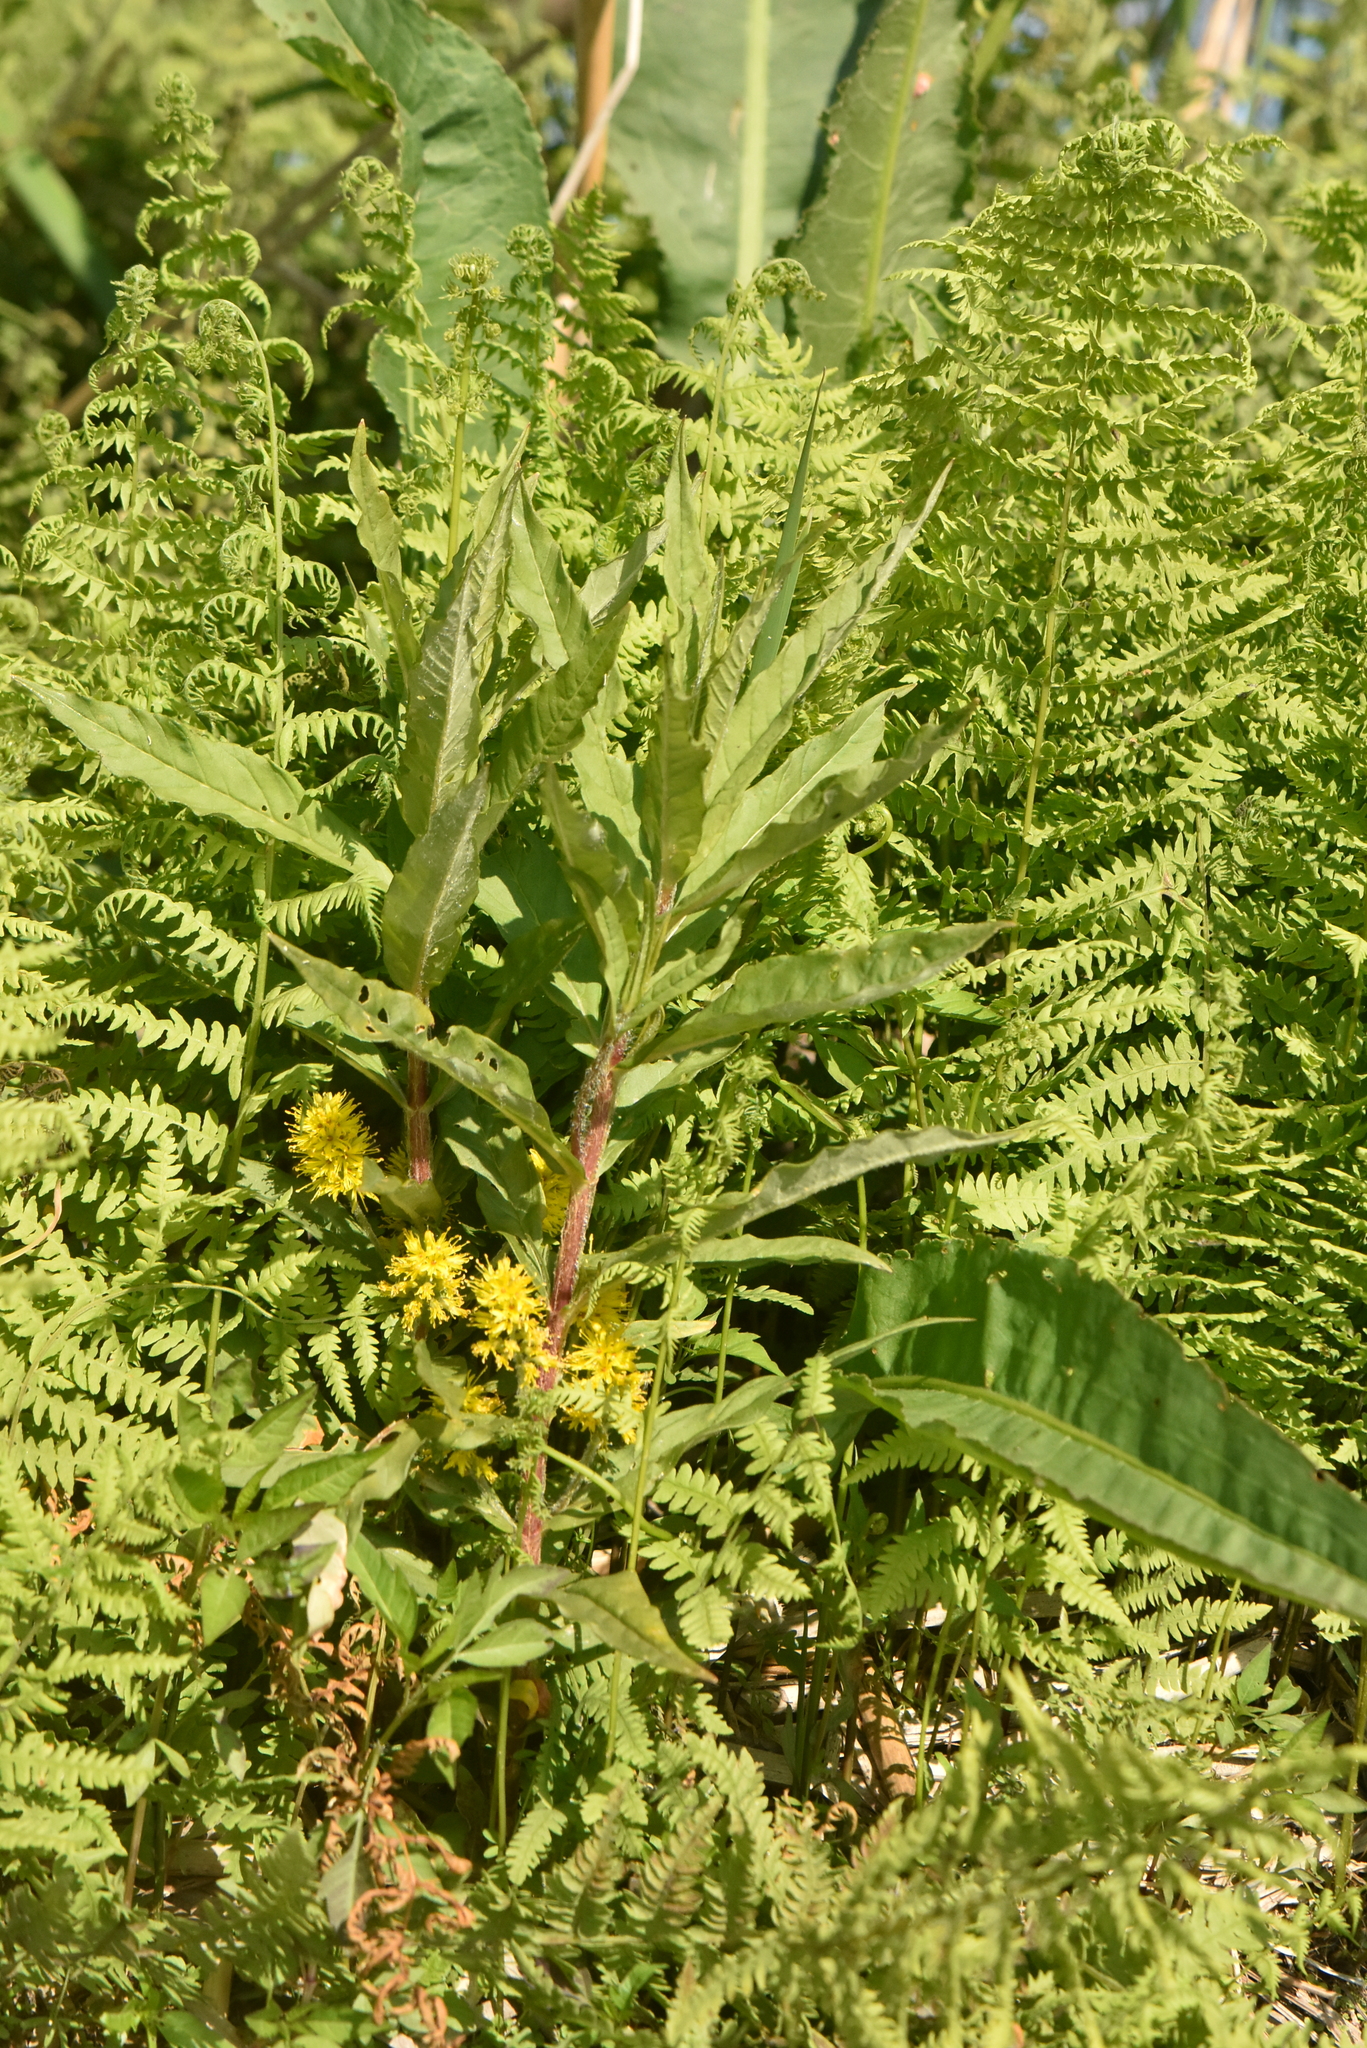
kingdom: Plantae
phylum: Tracheophyta
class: Magnoliopsida
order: Ericales
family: Primulaceae
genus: Lysimachia
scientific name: Lysimachia thyrsiflora
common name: Tufted loosestrife
